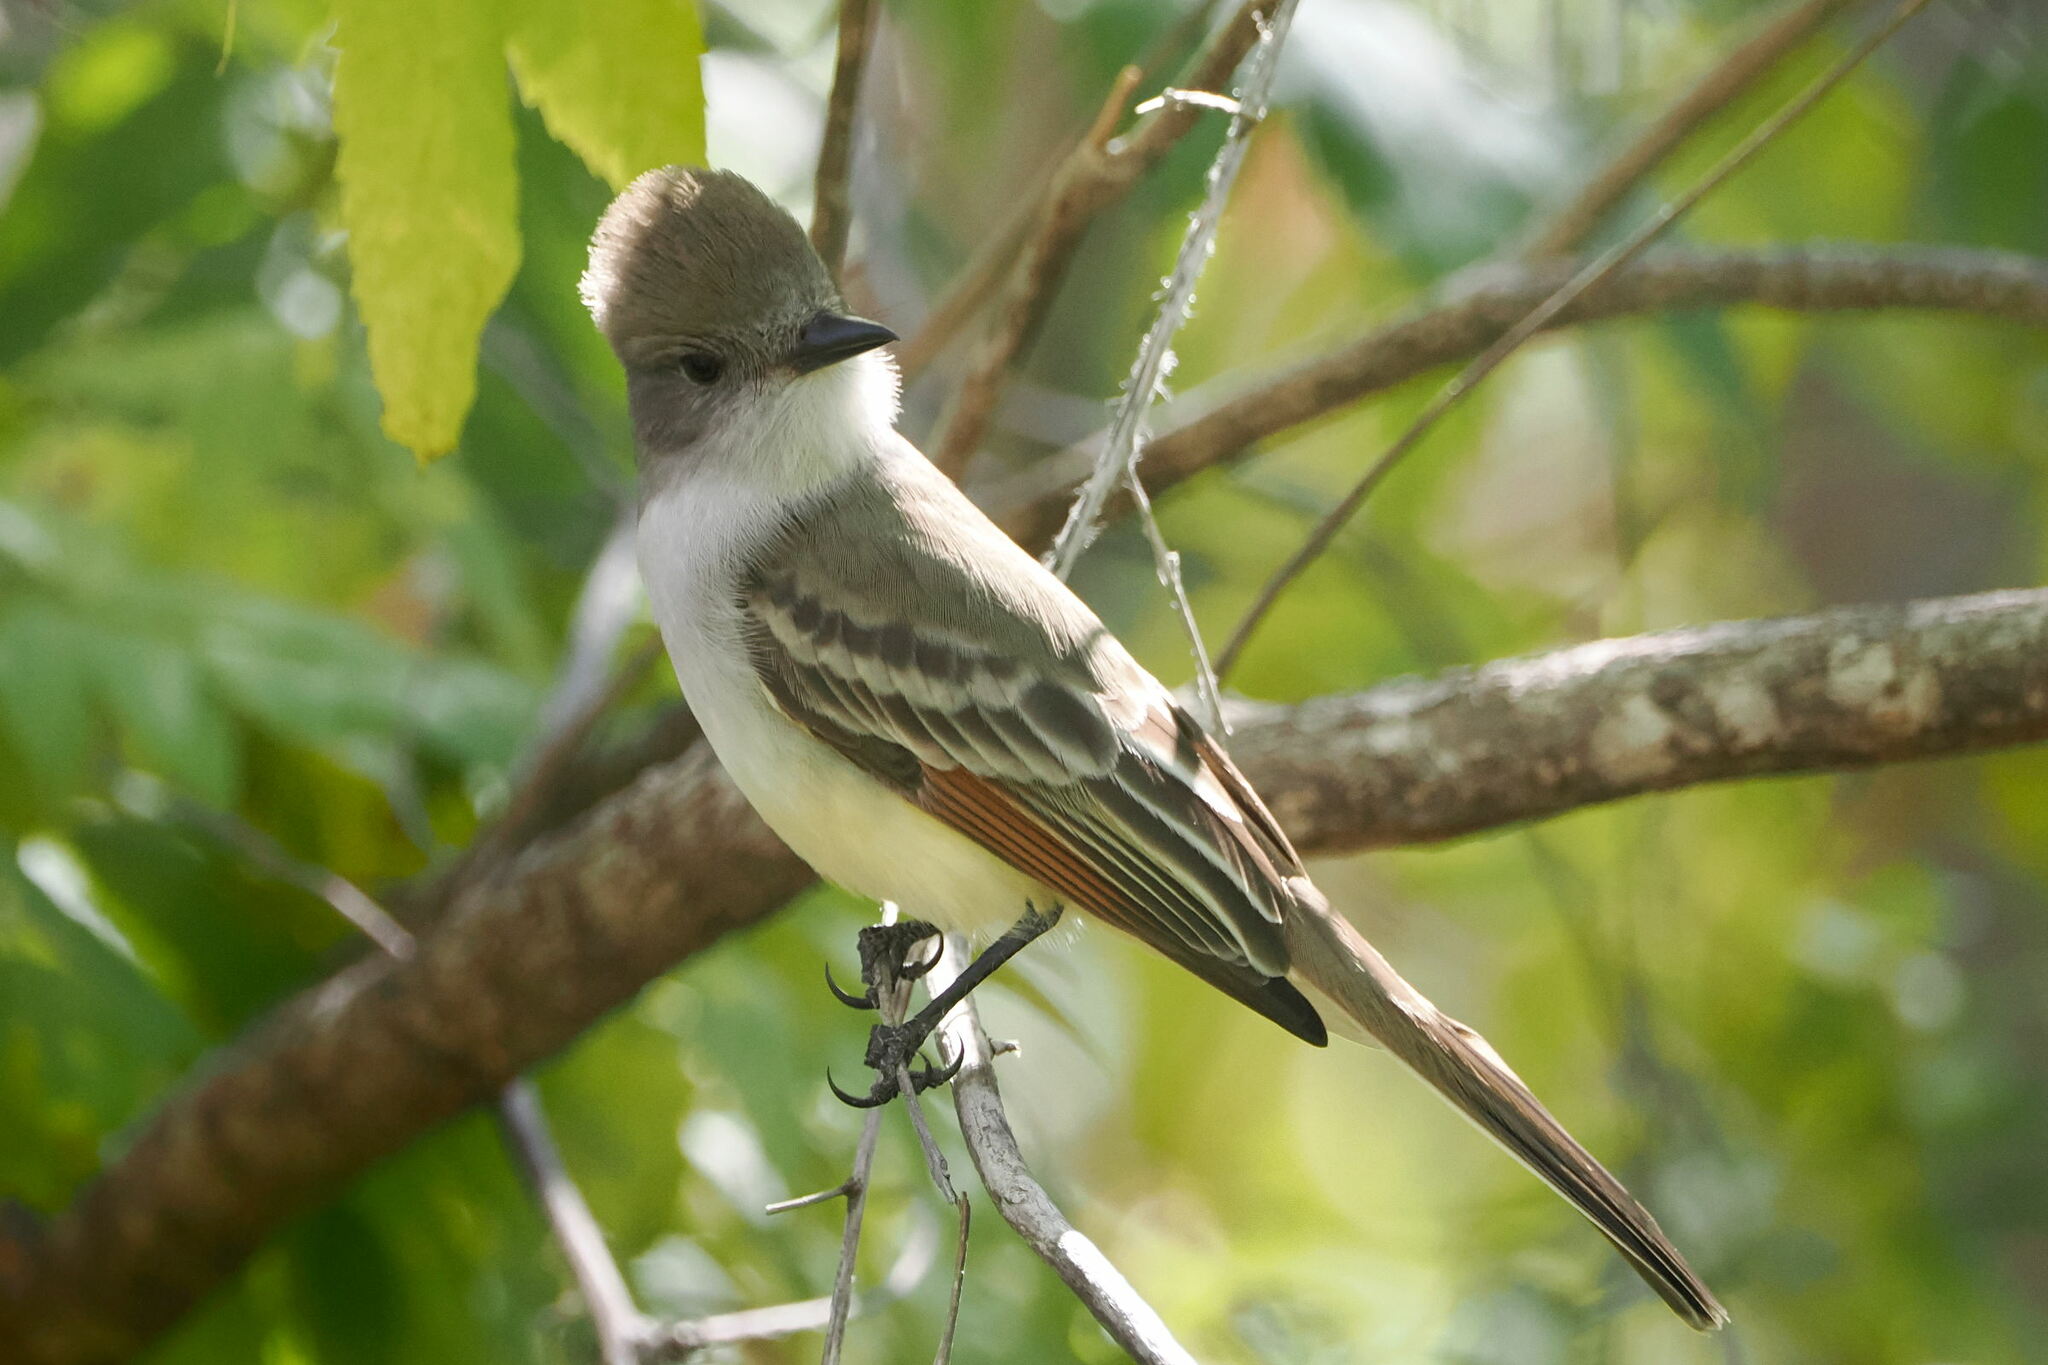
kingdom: Animalia
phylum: Chordata
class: Aves
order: Passeriformes
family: Tyrannidae
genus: Myiarchus
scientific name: Myiarchus cinerascens
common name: Ash-throated flycatcher
